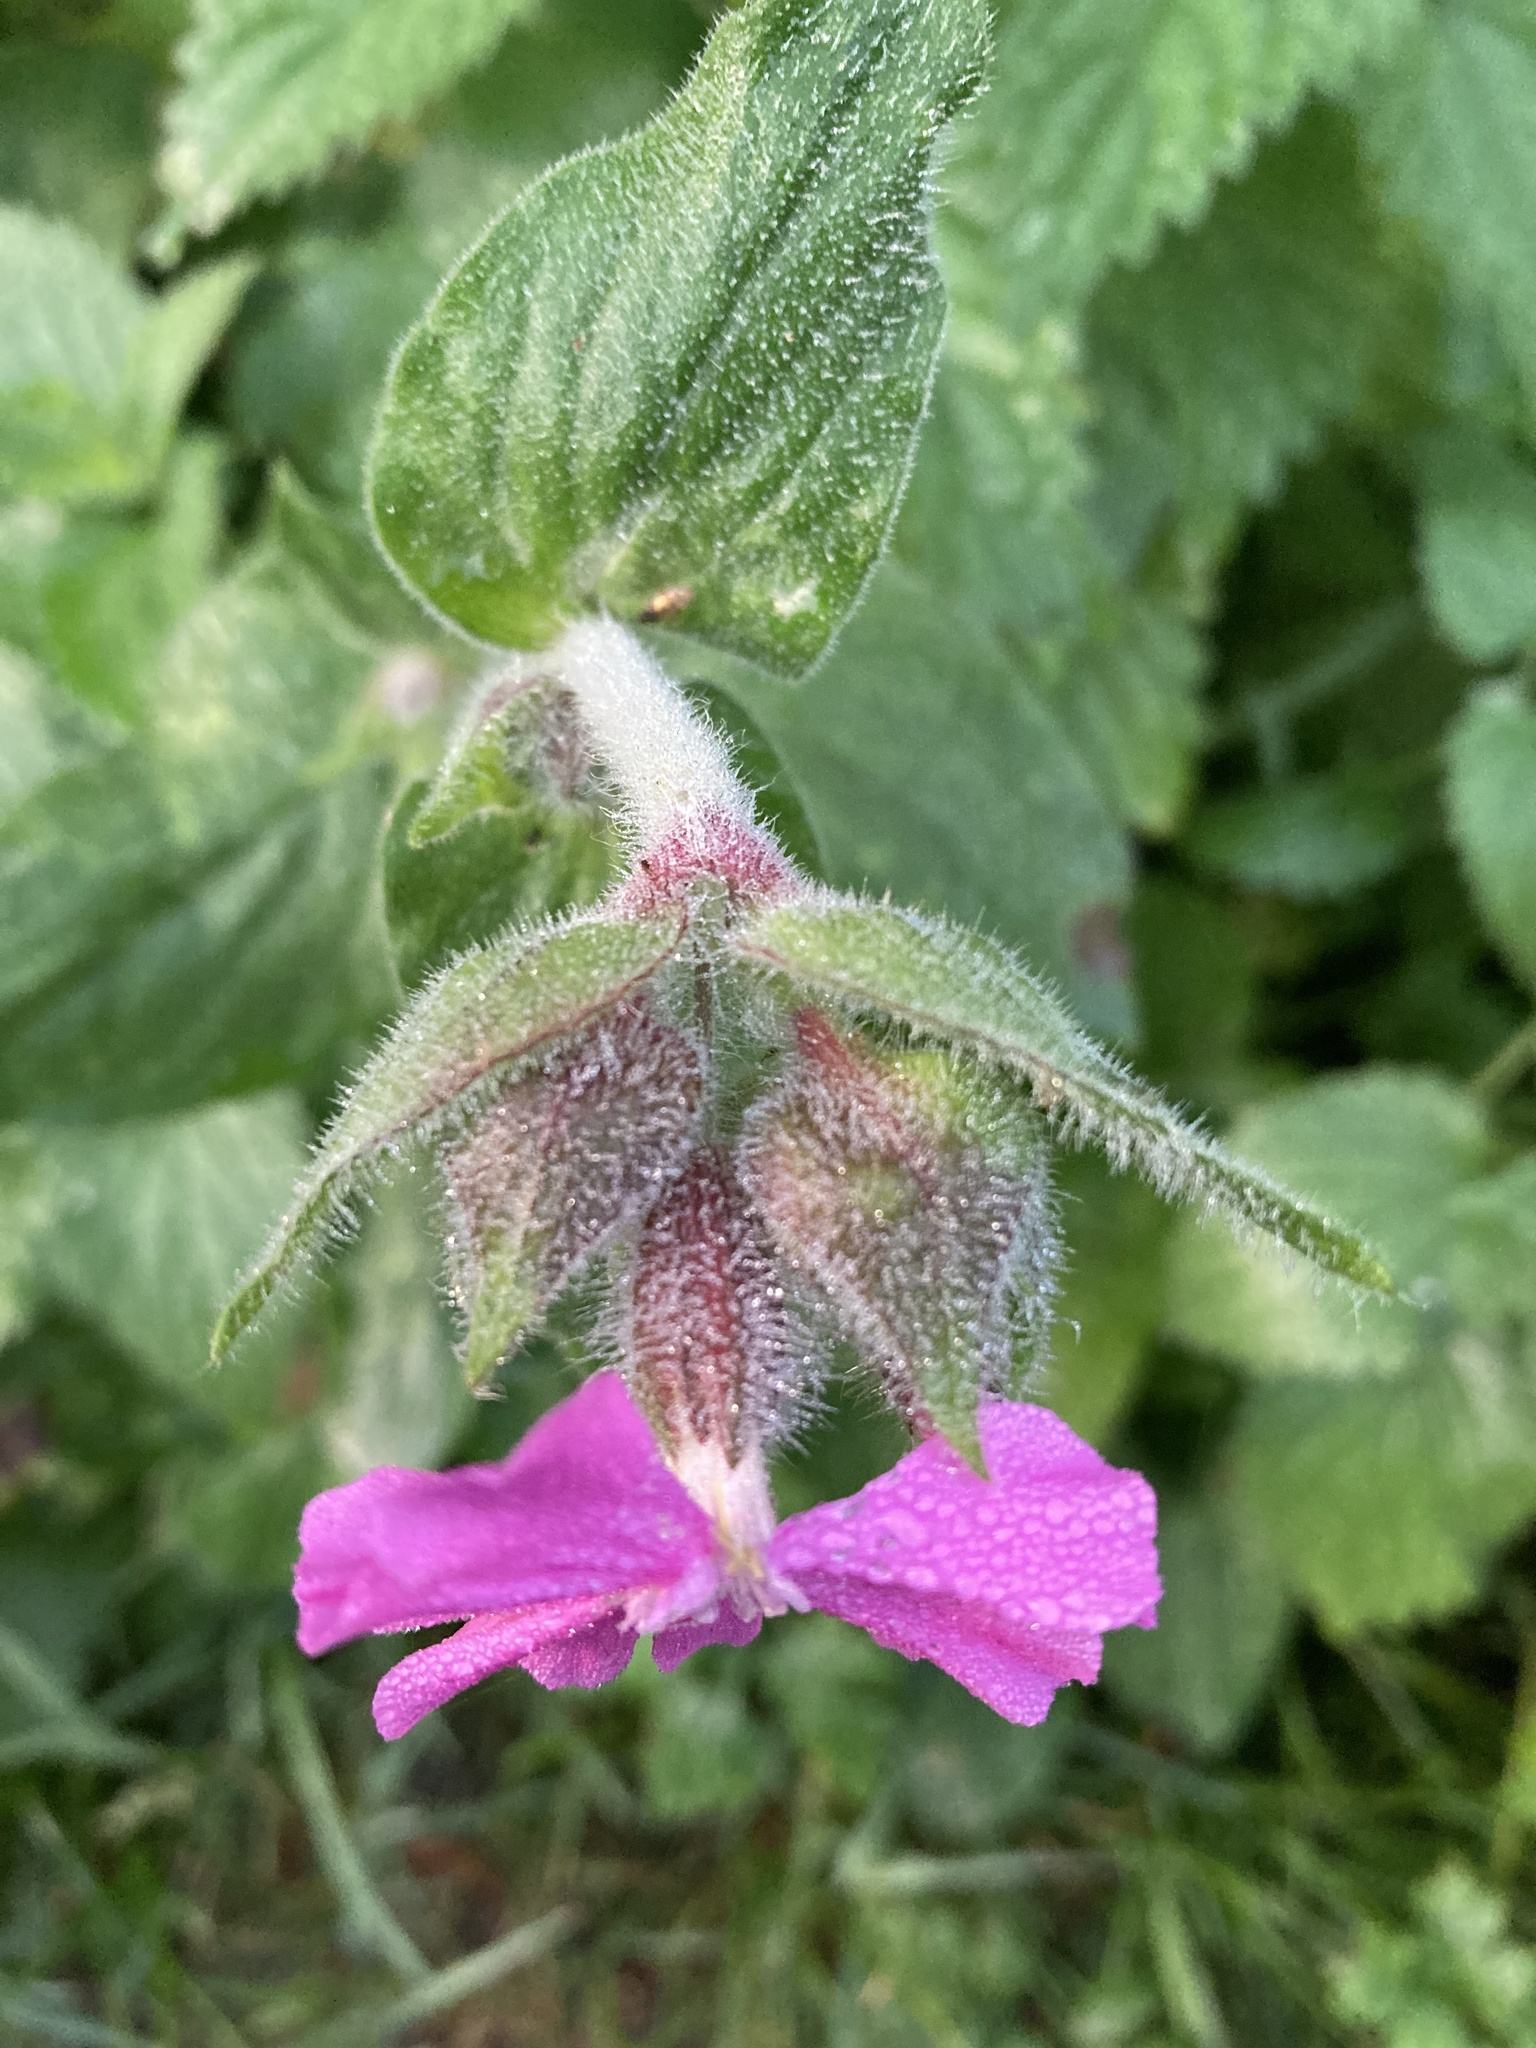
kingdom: Plantae
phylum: Tracheophyta
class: Magnoliopsida
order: Caryophyllales
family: Caryophyllaceae
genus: Silene
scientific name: Silene dioica
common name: Red campion
